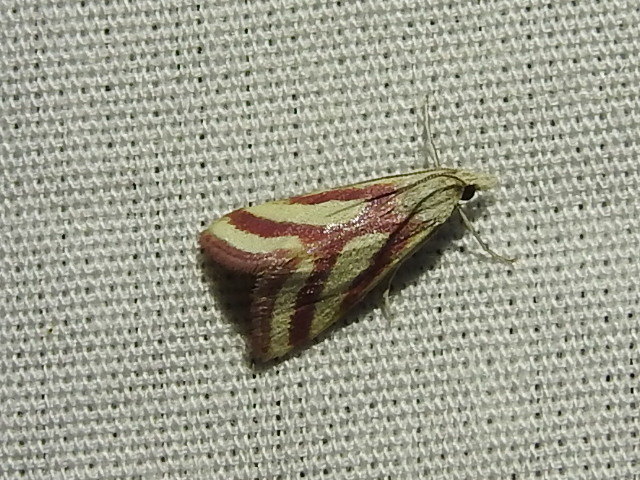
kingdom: Animalia
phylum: Arthropoda
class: Insecta
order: Lepidoptera
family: Crambidae
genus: Microtheoris
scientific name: Microtheoris vibicalis
